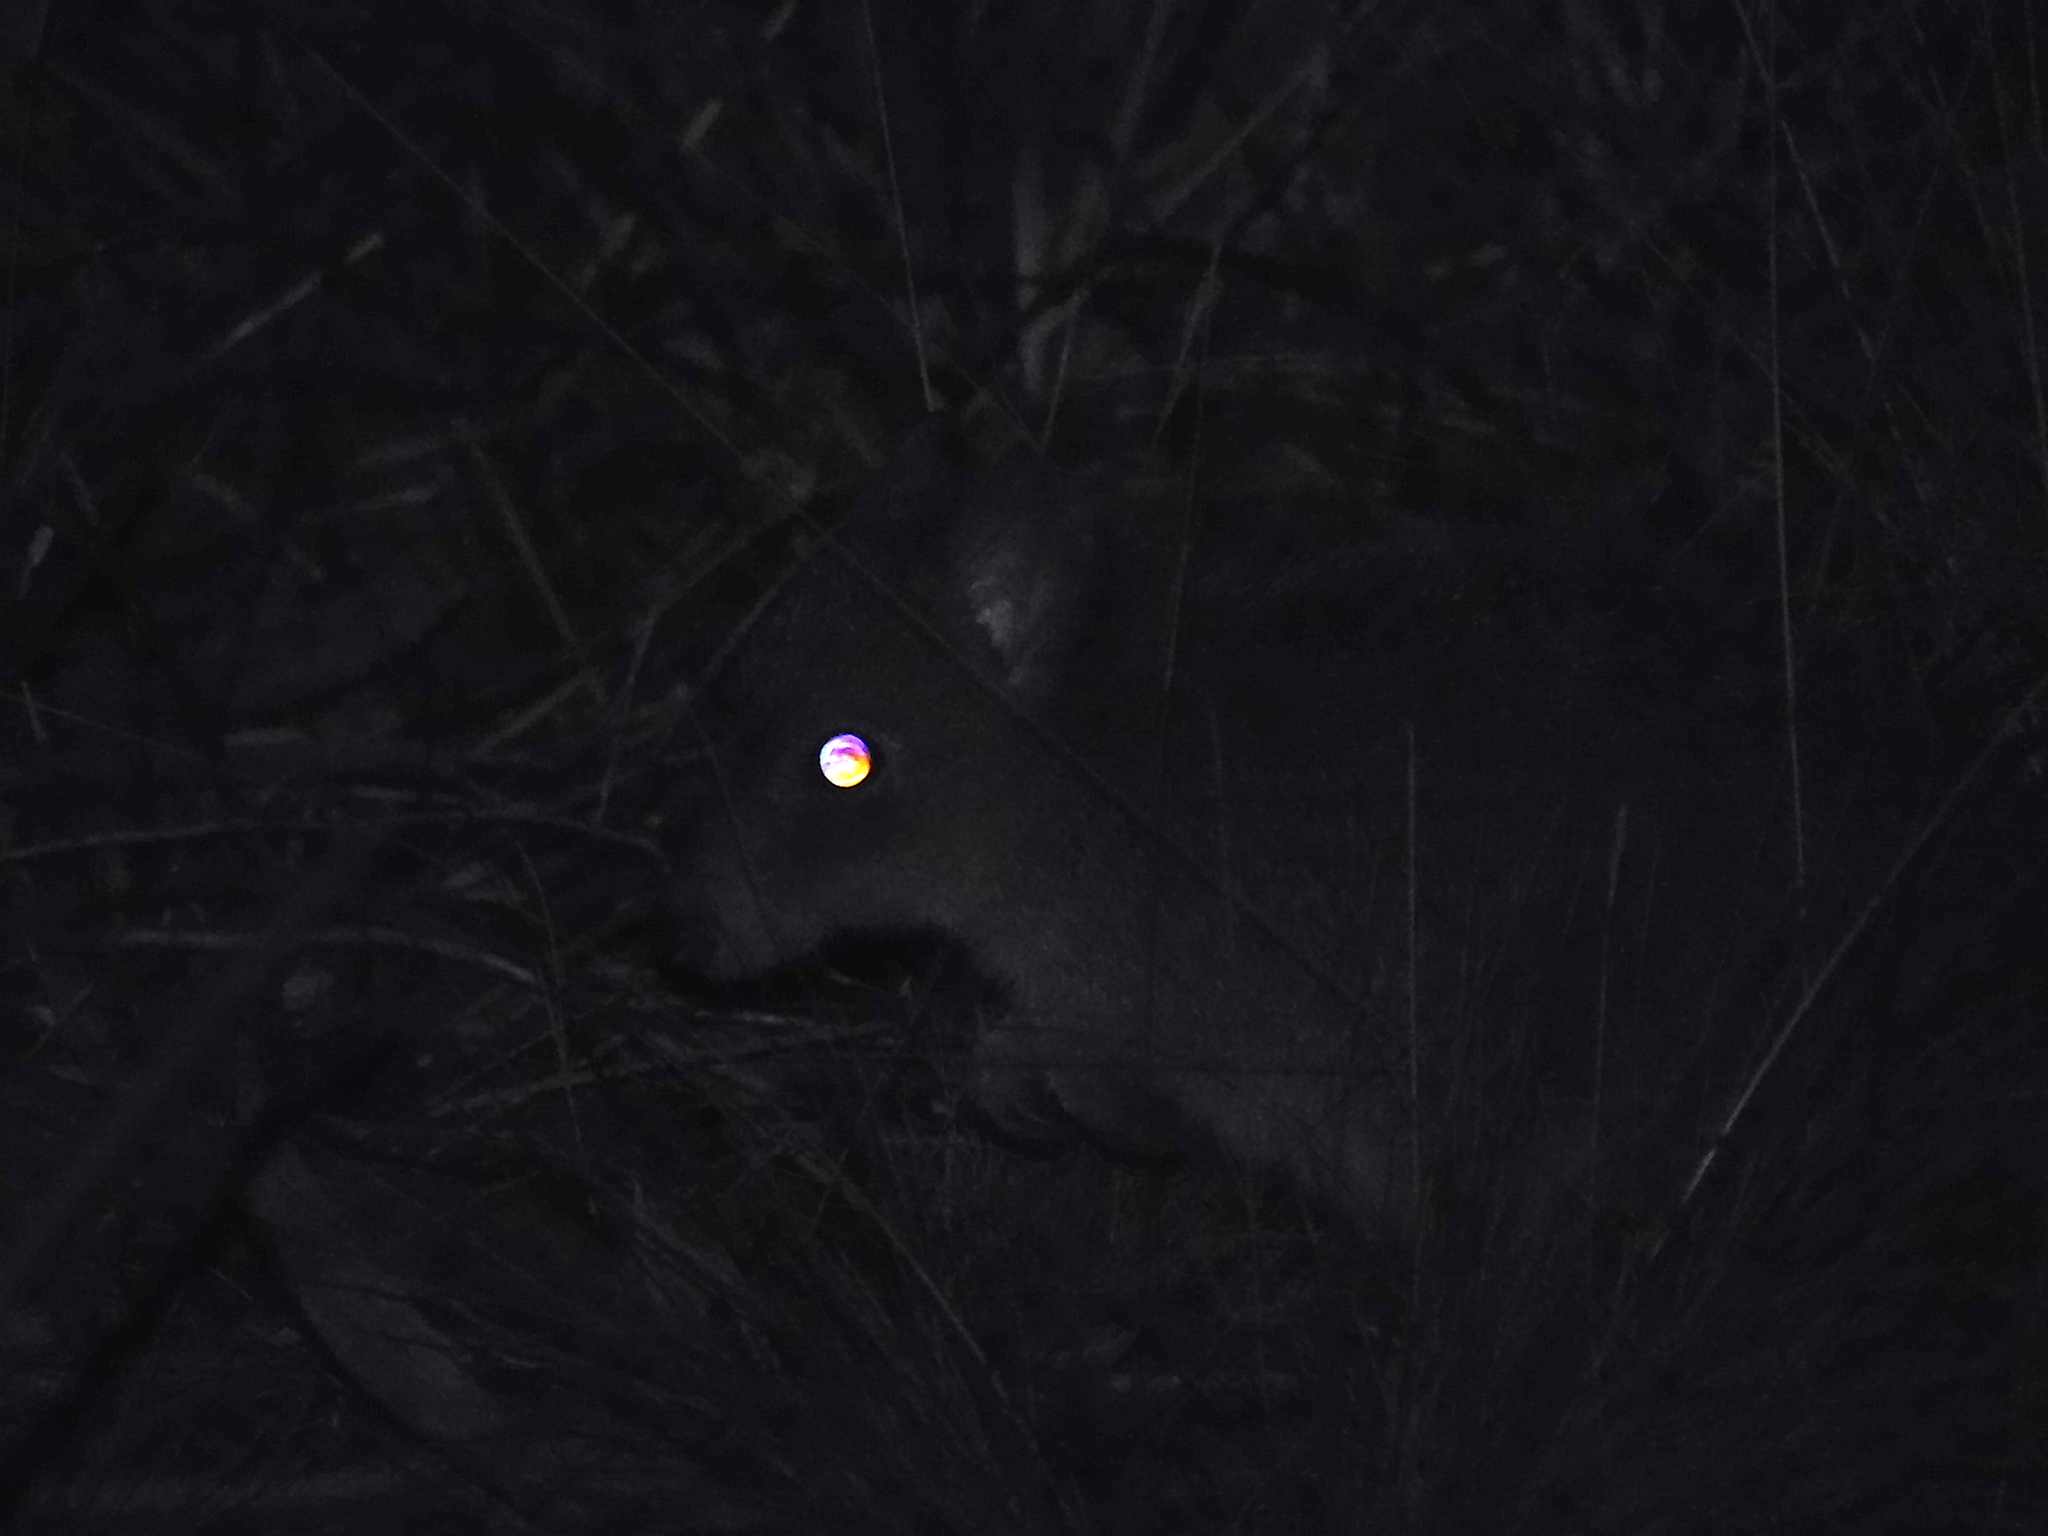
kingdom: Animalia
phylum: Chordata
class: Mammalia
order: Diprotodontia
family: Potoroidae
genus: Bettongia
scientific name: Bettongia gaimardi
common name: Eastern bettong
